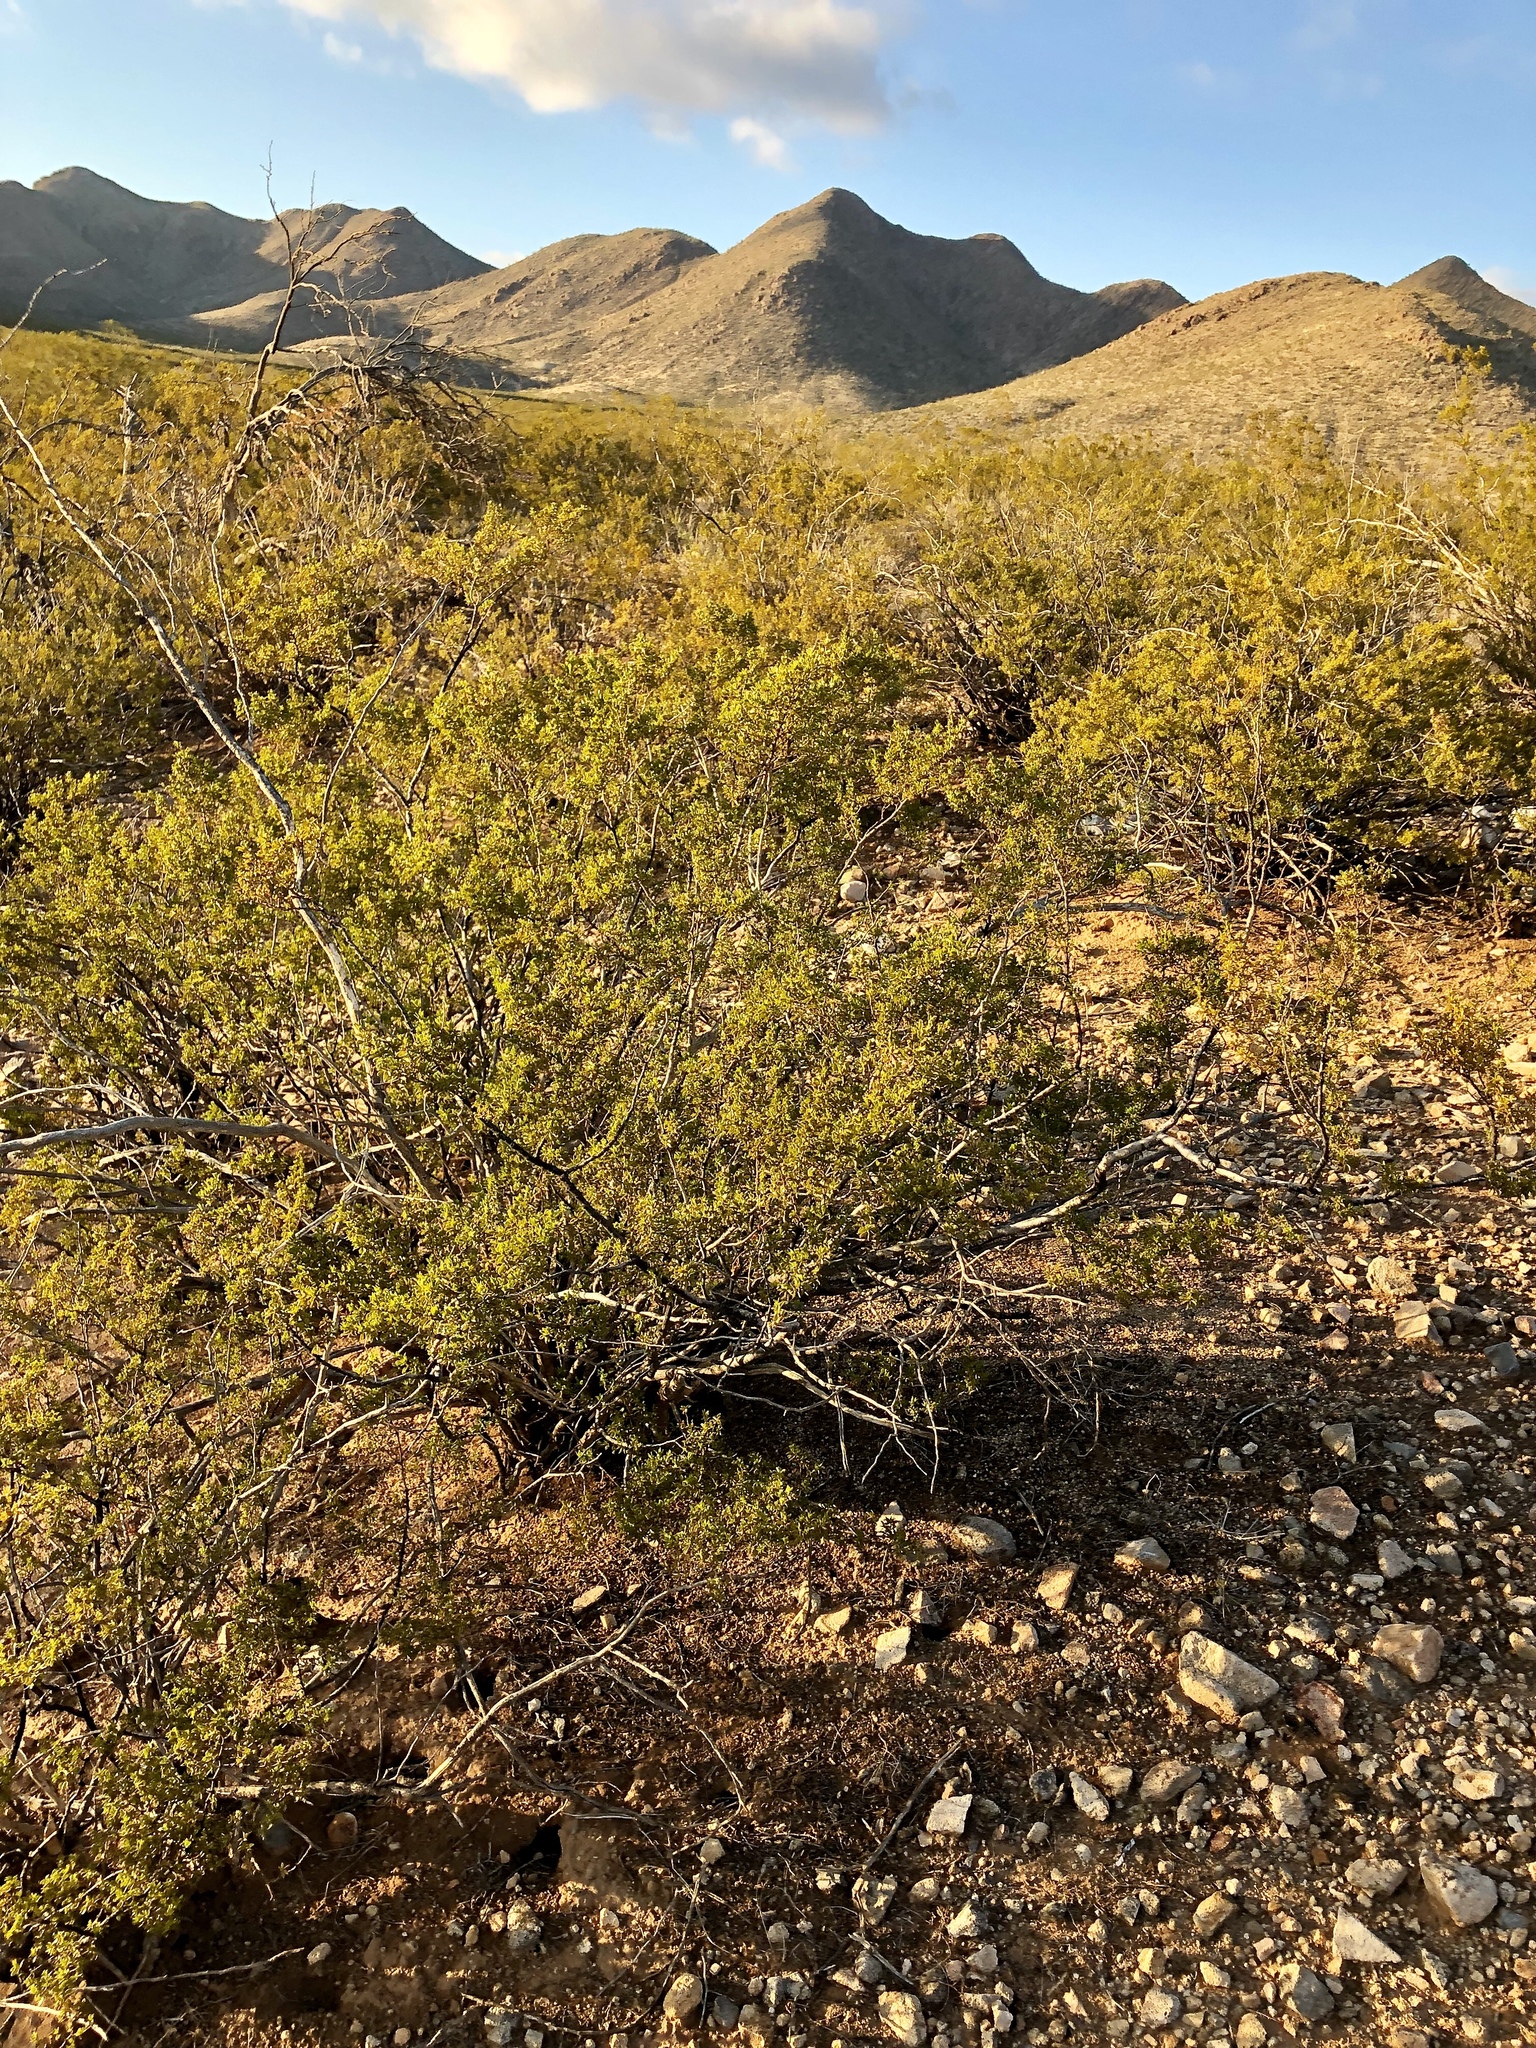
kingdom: Plantae
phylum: Tracheophyta
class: Magnoliopsida
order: Zygophyllales
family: Zygophyllaceae
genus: Larrea
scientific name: Larrea tridentata
